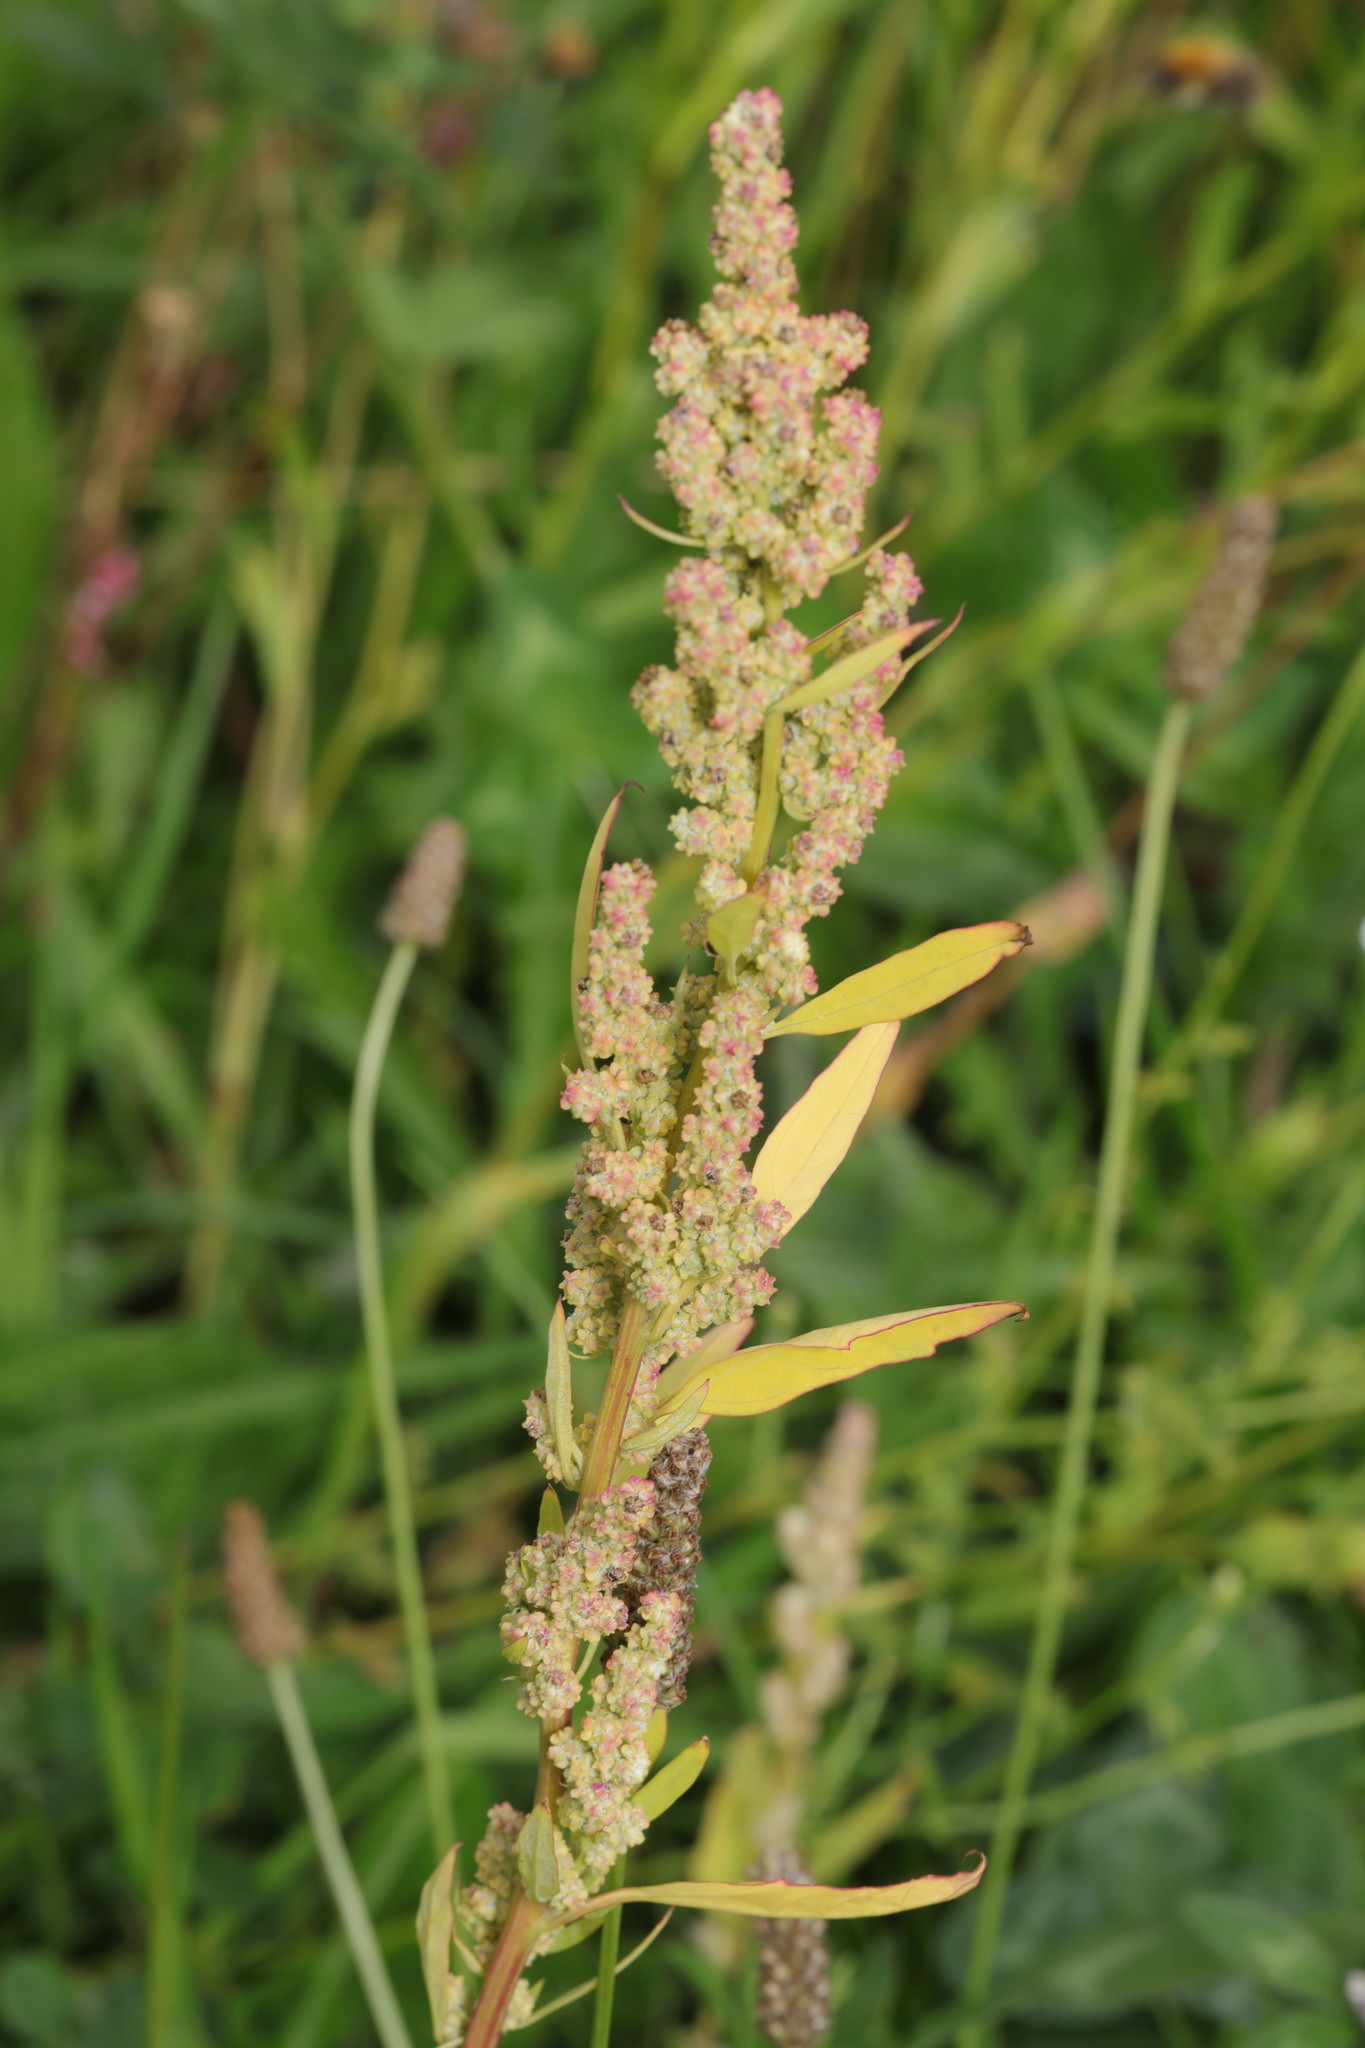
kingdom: Plantae
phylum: Tracheophyta
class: Magnoliopsida
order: Caryophyllales
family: Amaranthaceae
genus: Chenopodium
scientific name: Chenopodium album
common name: Fat-hen
